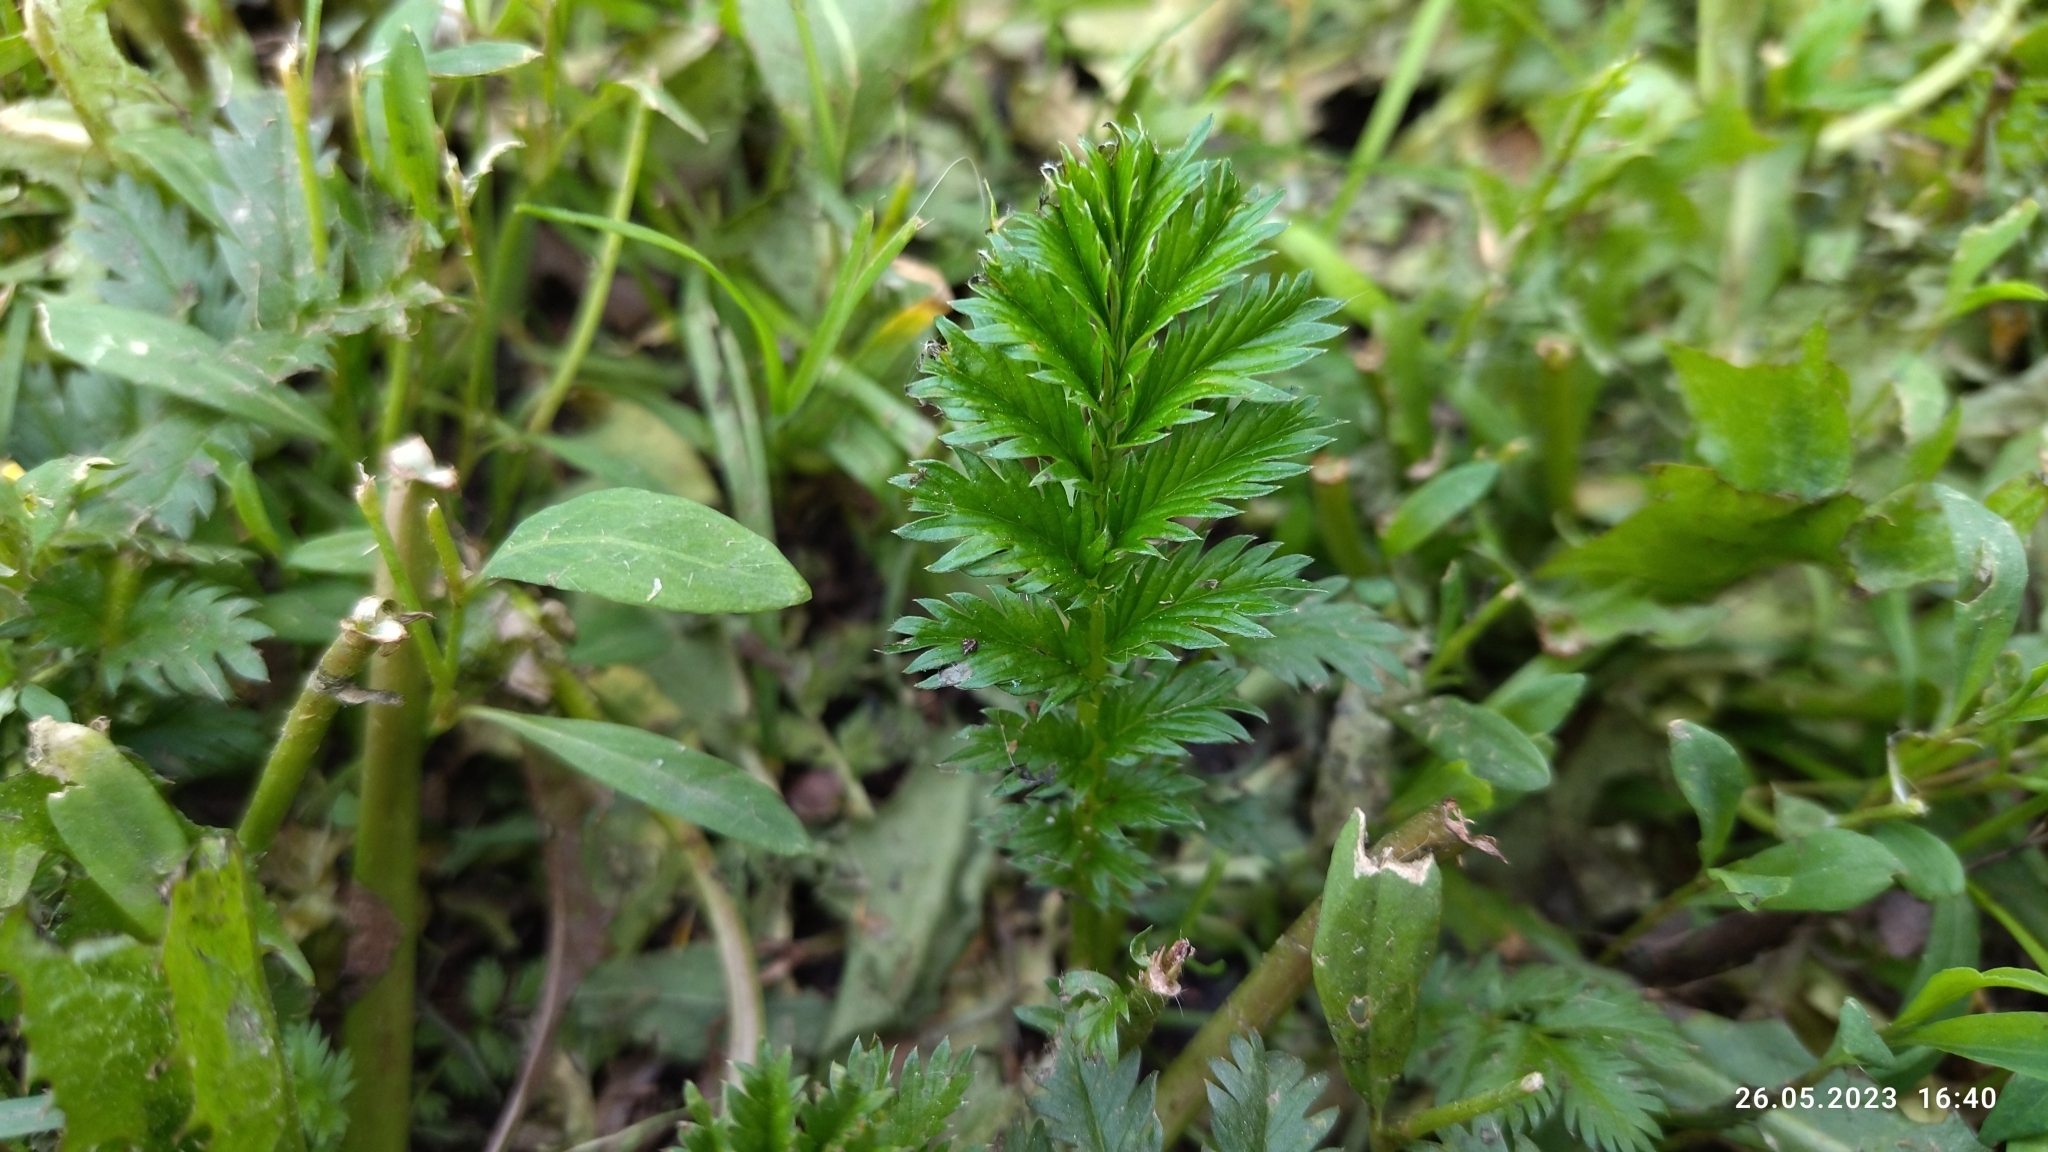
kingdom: Plantae
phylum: Tracheophyta
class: Magnoliopsida
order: Rosales
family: Rosaceae
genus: Argentina
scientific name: Argentina anserina
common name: Common silverweed
